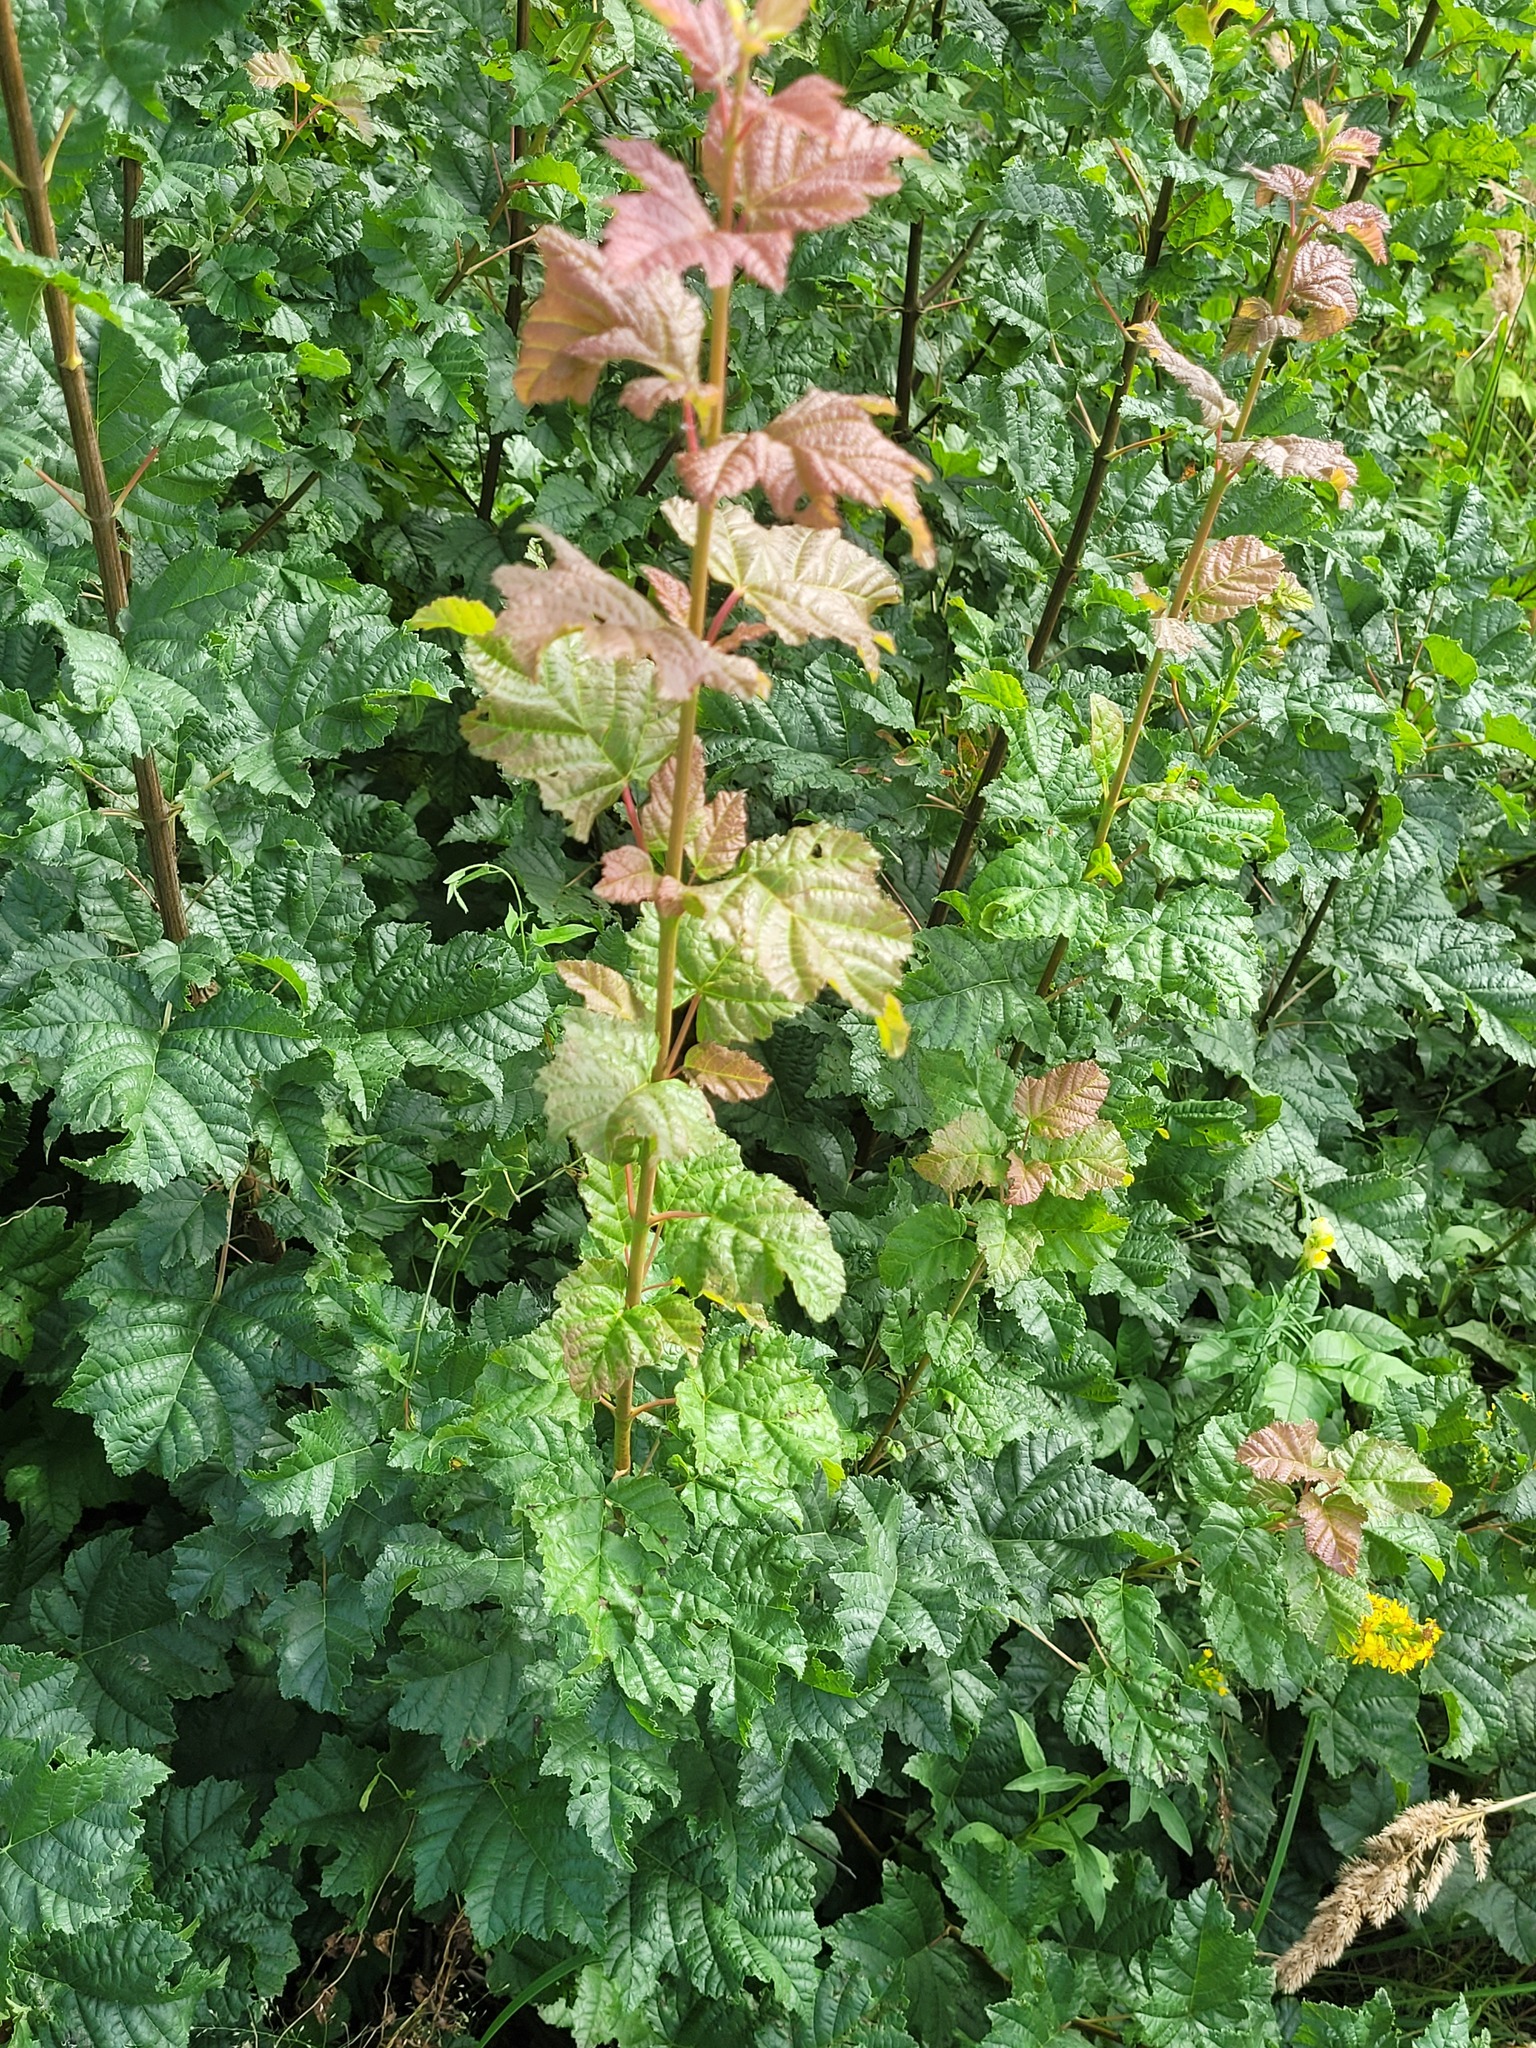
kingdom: Plantae
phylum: Tracheophyta
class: Magnoliopsida
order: Sapindales
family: Sapindaceae
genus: Acer
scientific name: Acer tataricum
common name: Tartar maple
